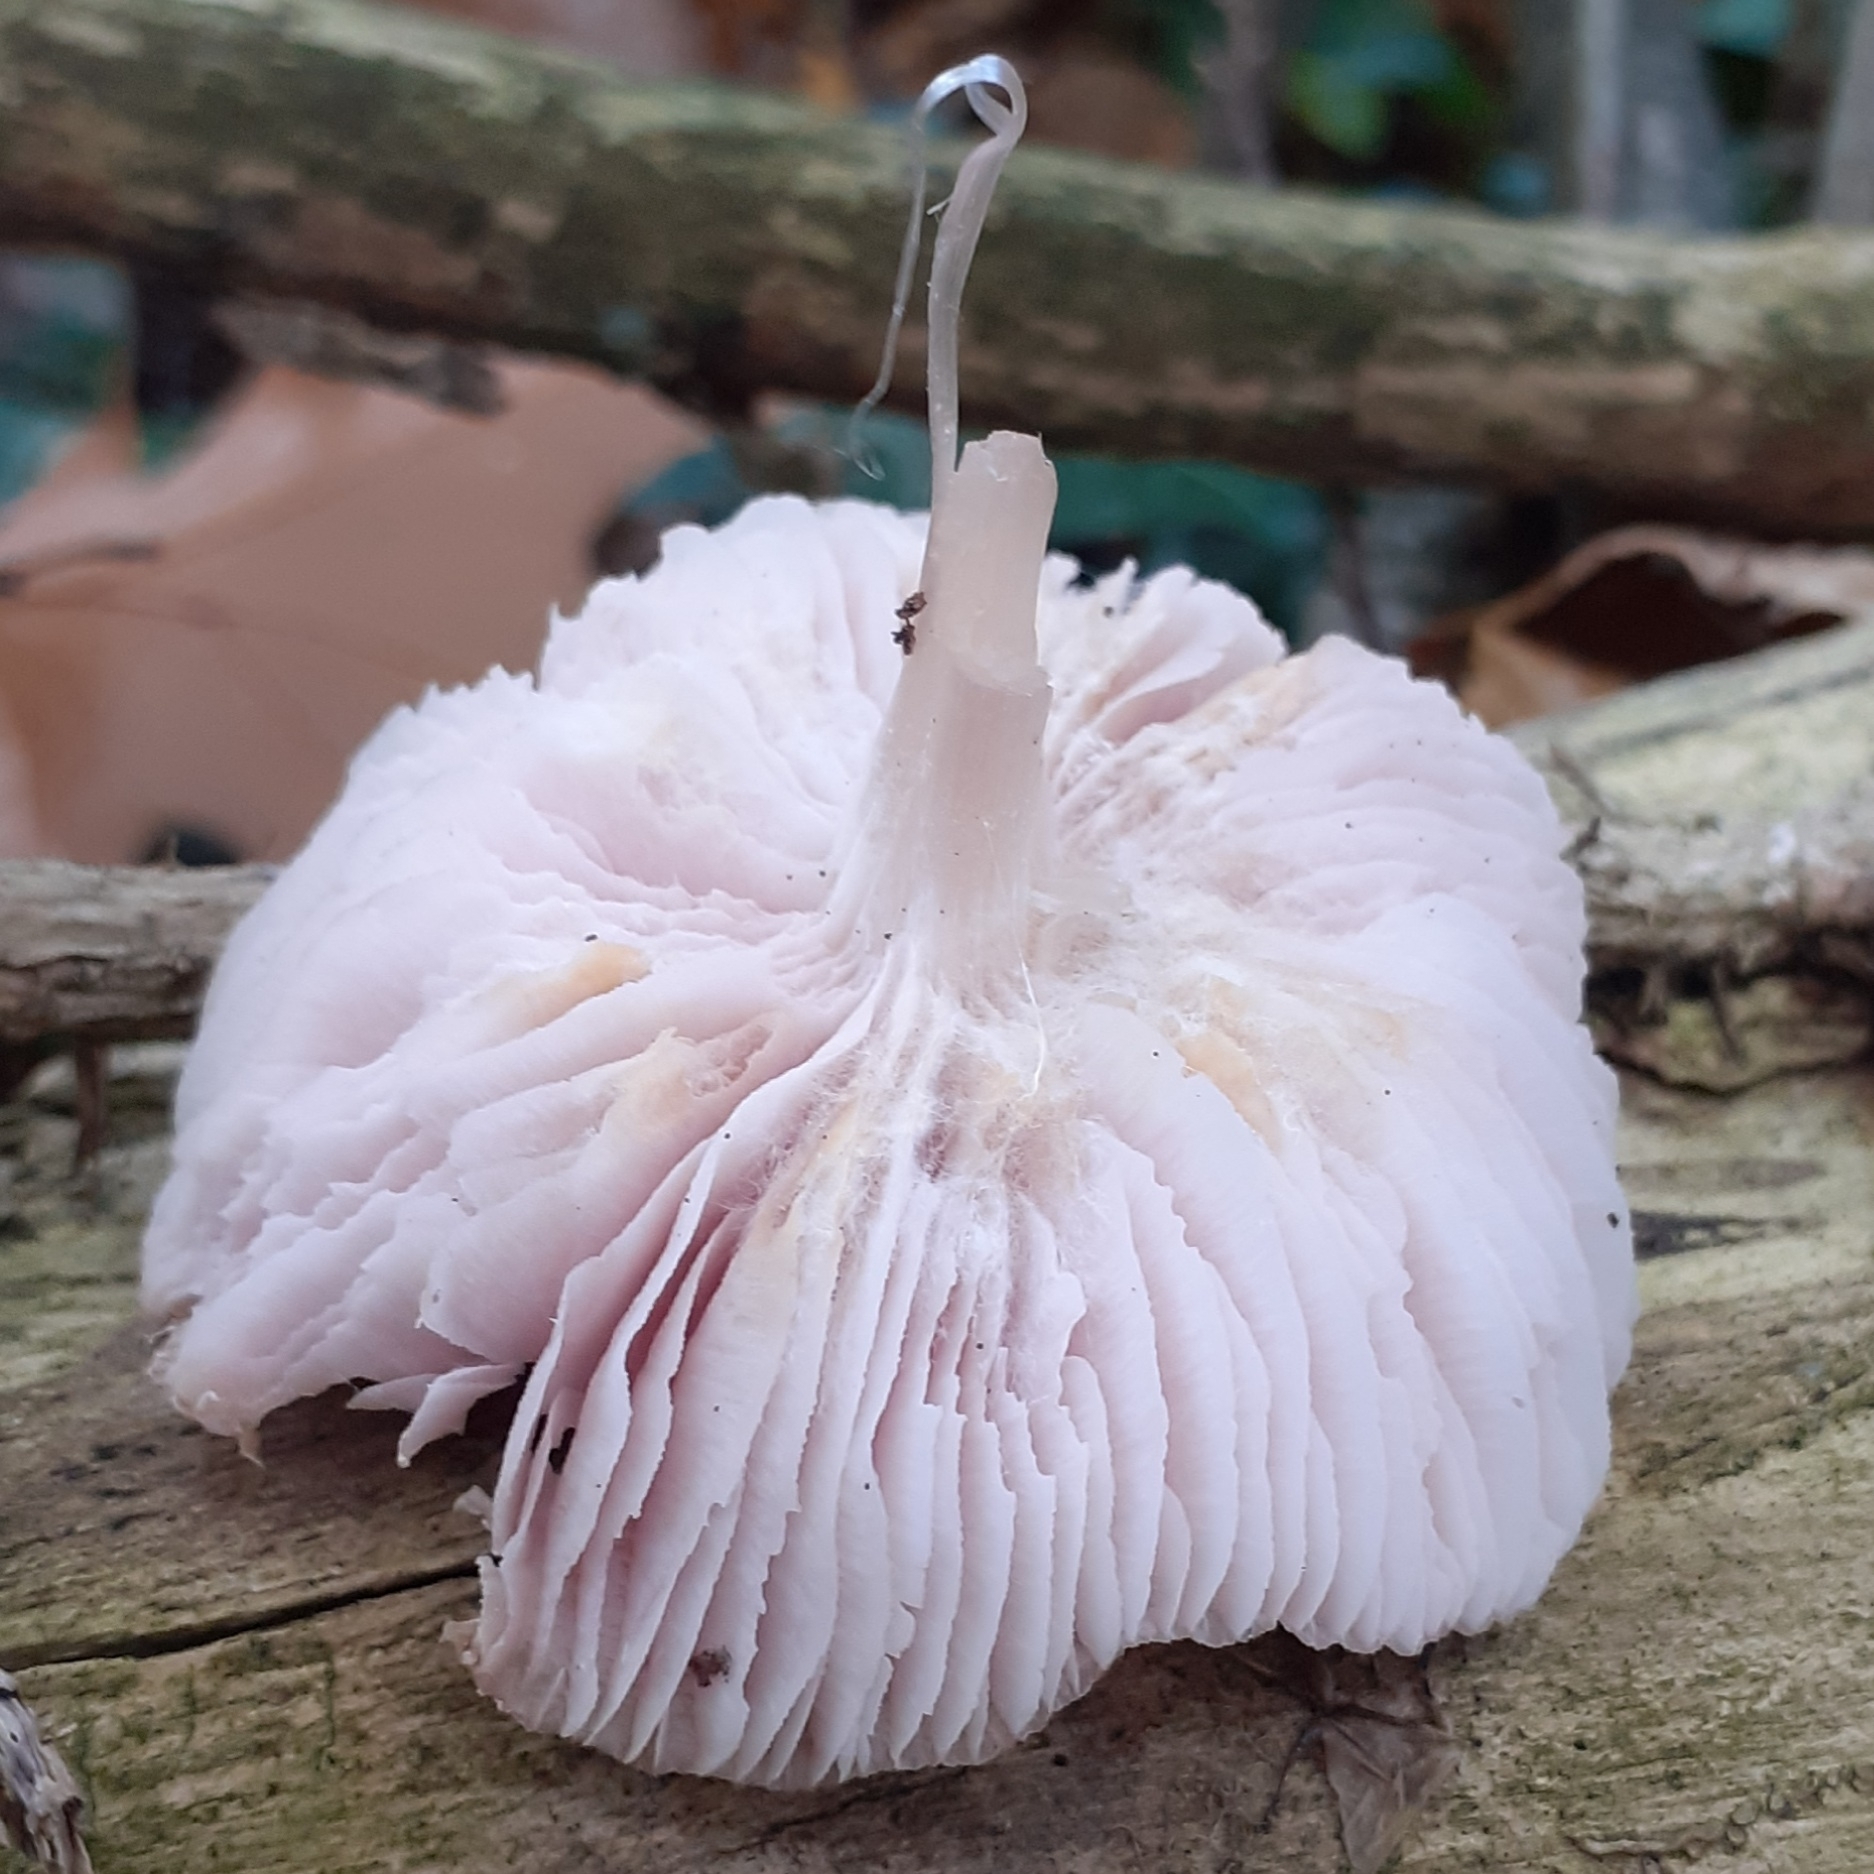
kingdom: Fungi
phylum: Basidiomycota
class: Agaricomycetes
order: Agaricales
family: Mycenaceae
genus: Mycena
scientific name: Mycena rosea
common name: Rosy bonnet
